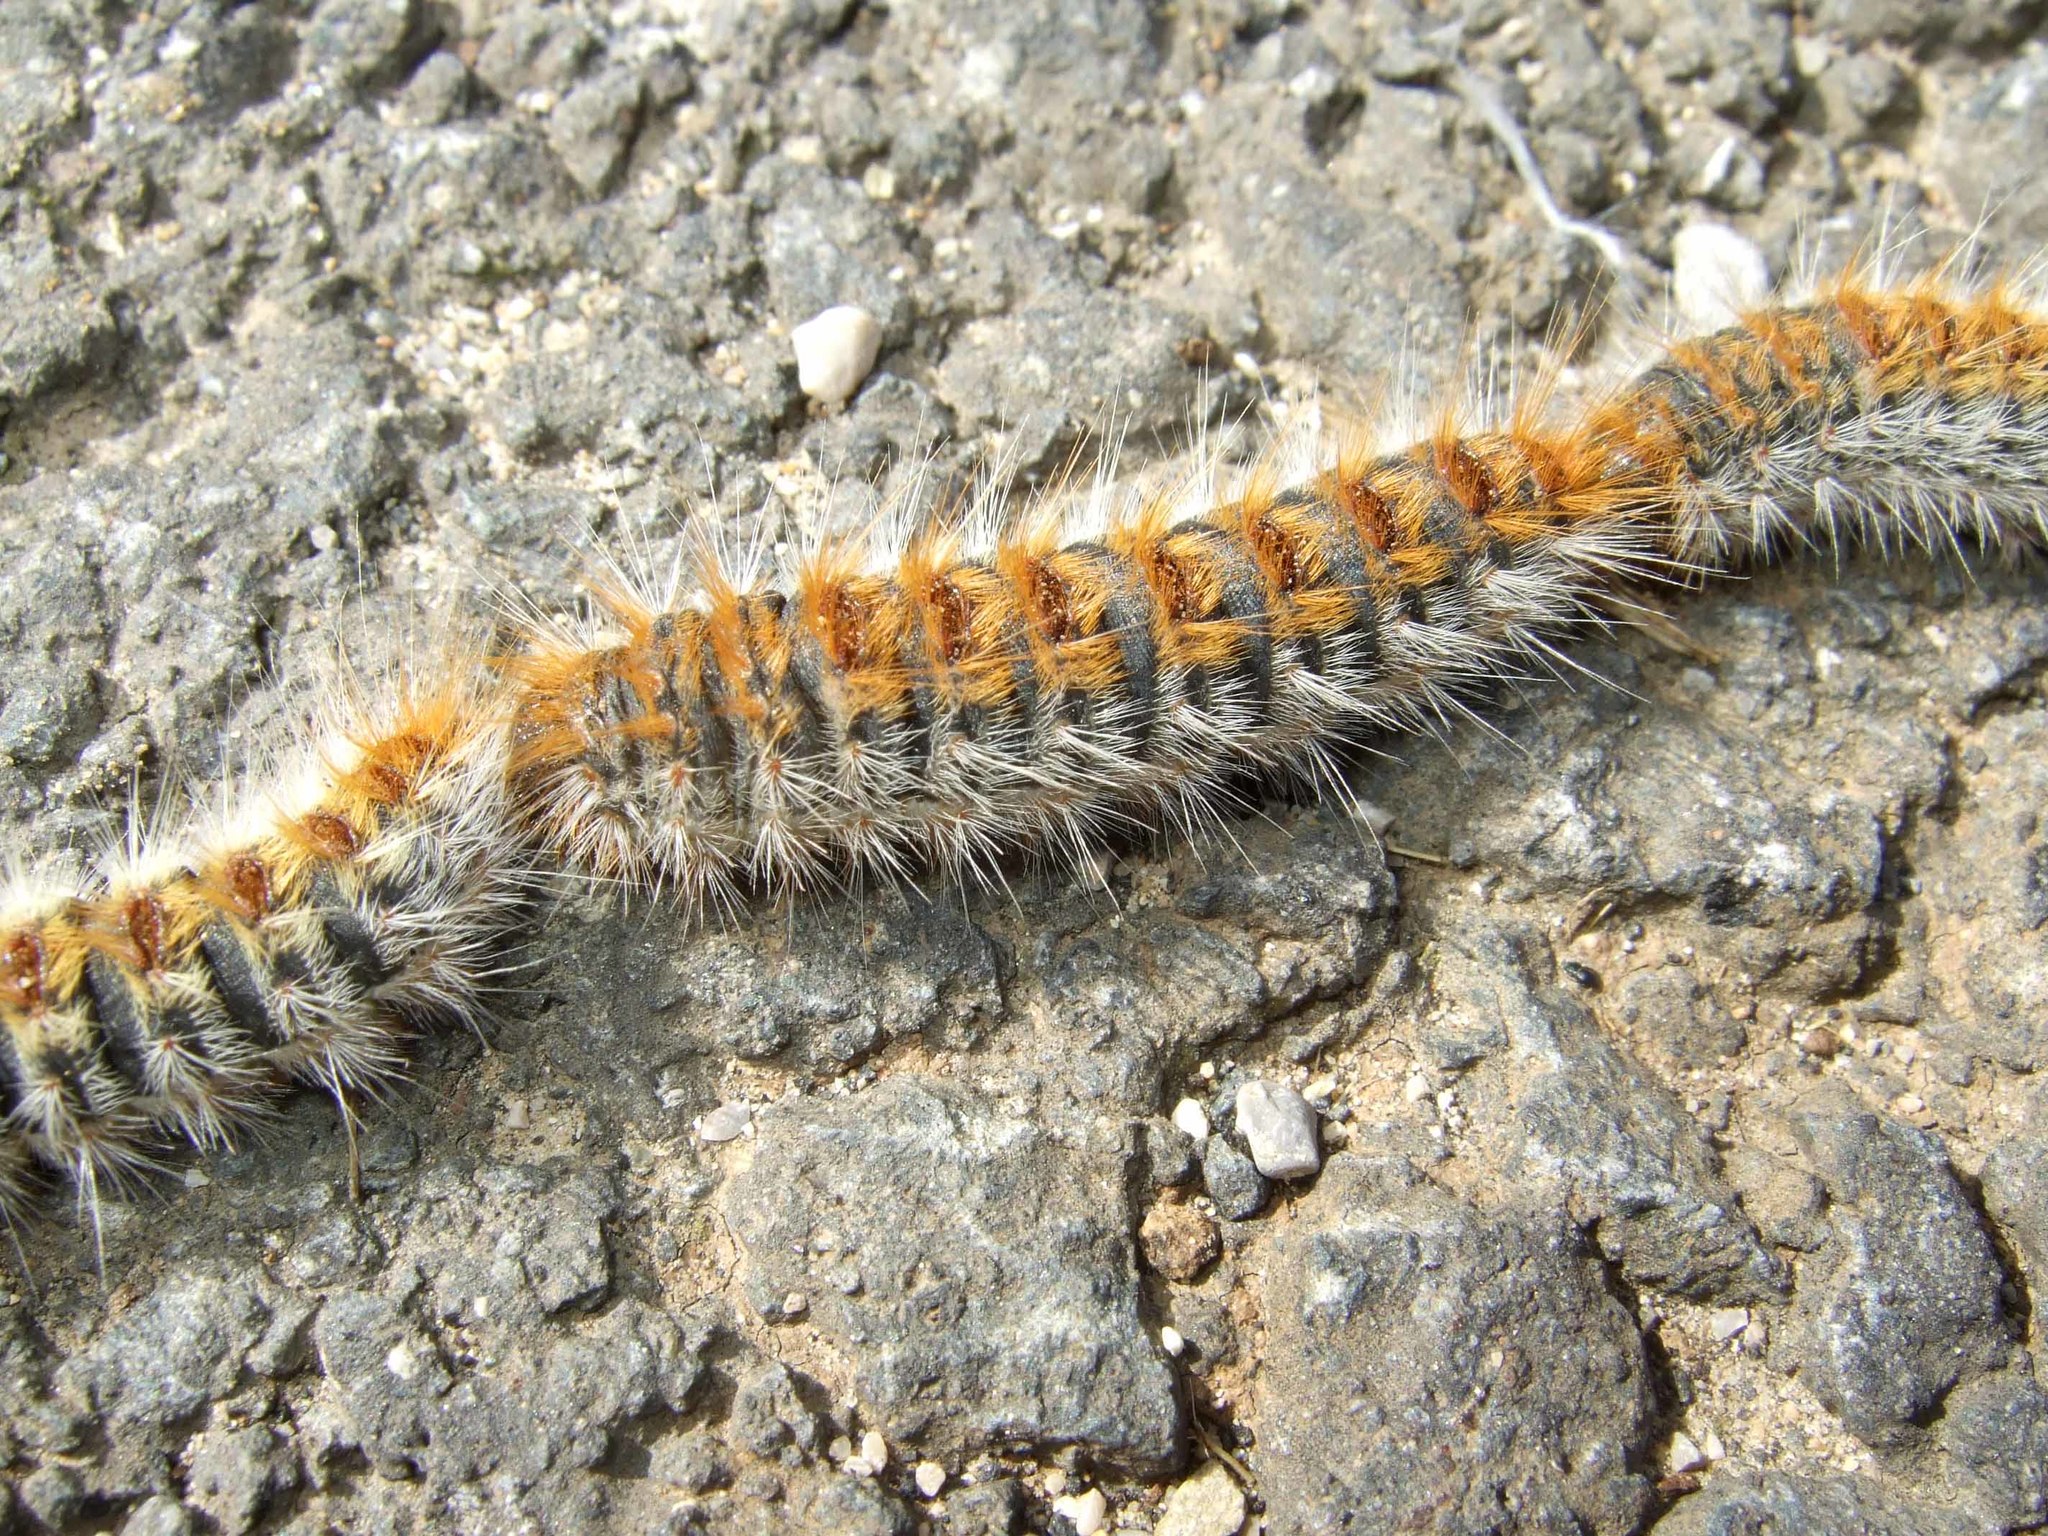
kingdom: Animalia
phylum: Arthropoda
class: Insecta
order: Lepidoptera
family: Notodontidae
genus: Thaumetopoea
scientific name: Thaumetopoea pityocampa
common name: Pine processionary
